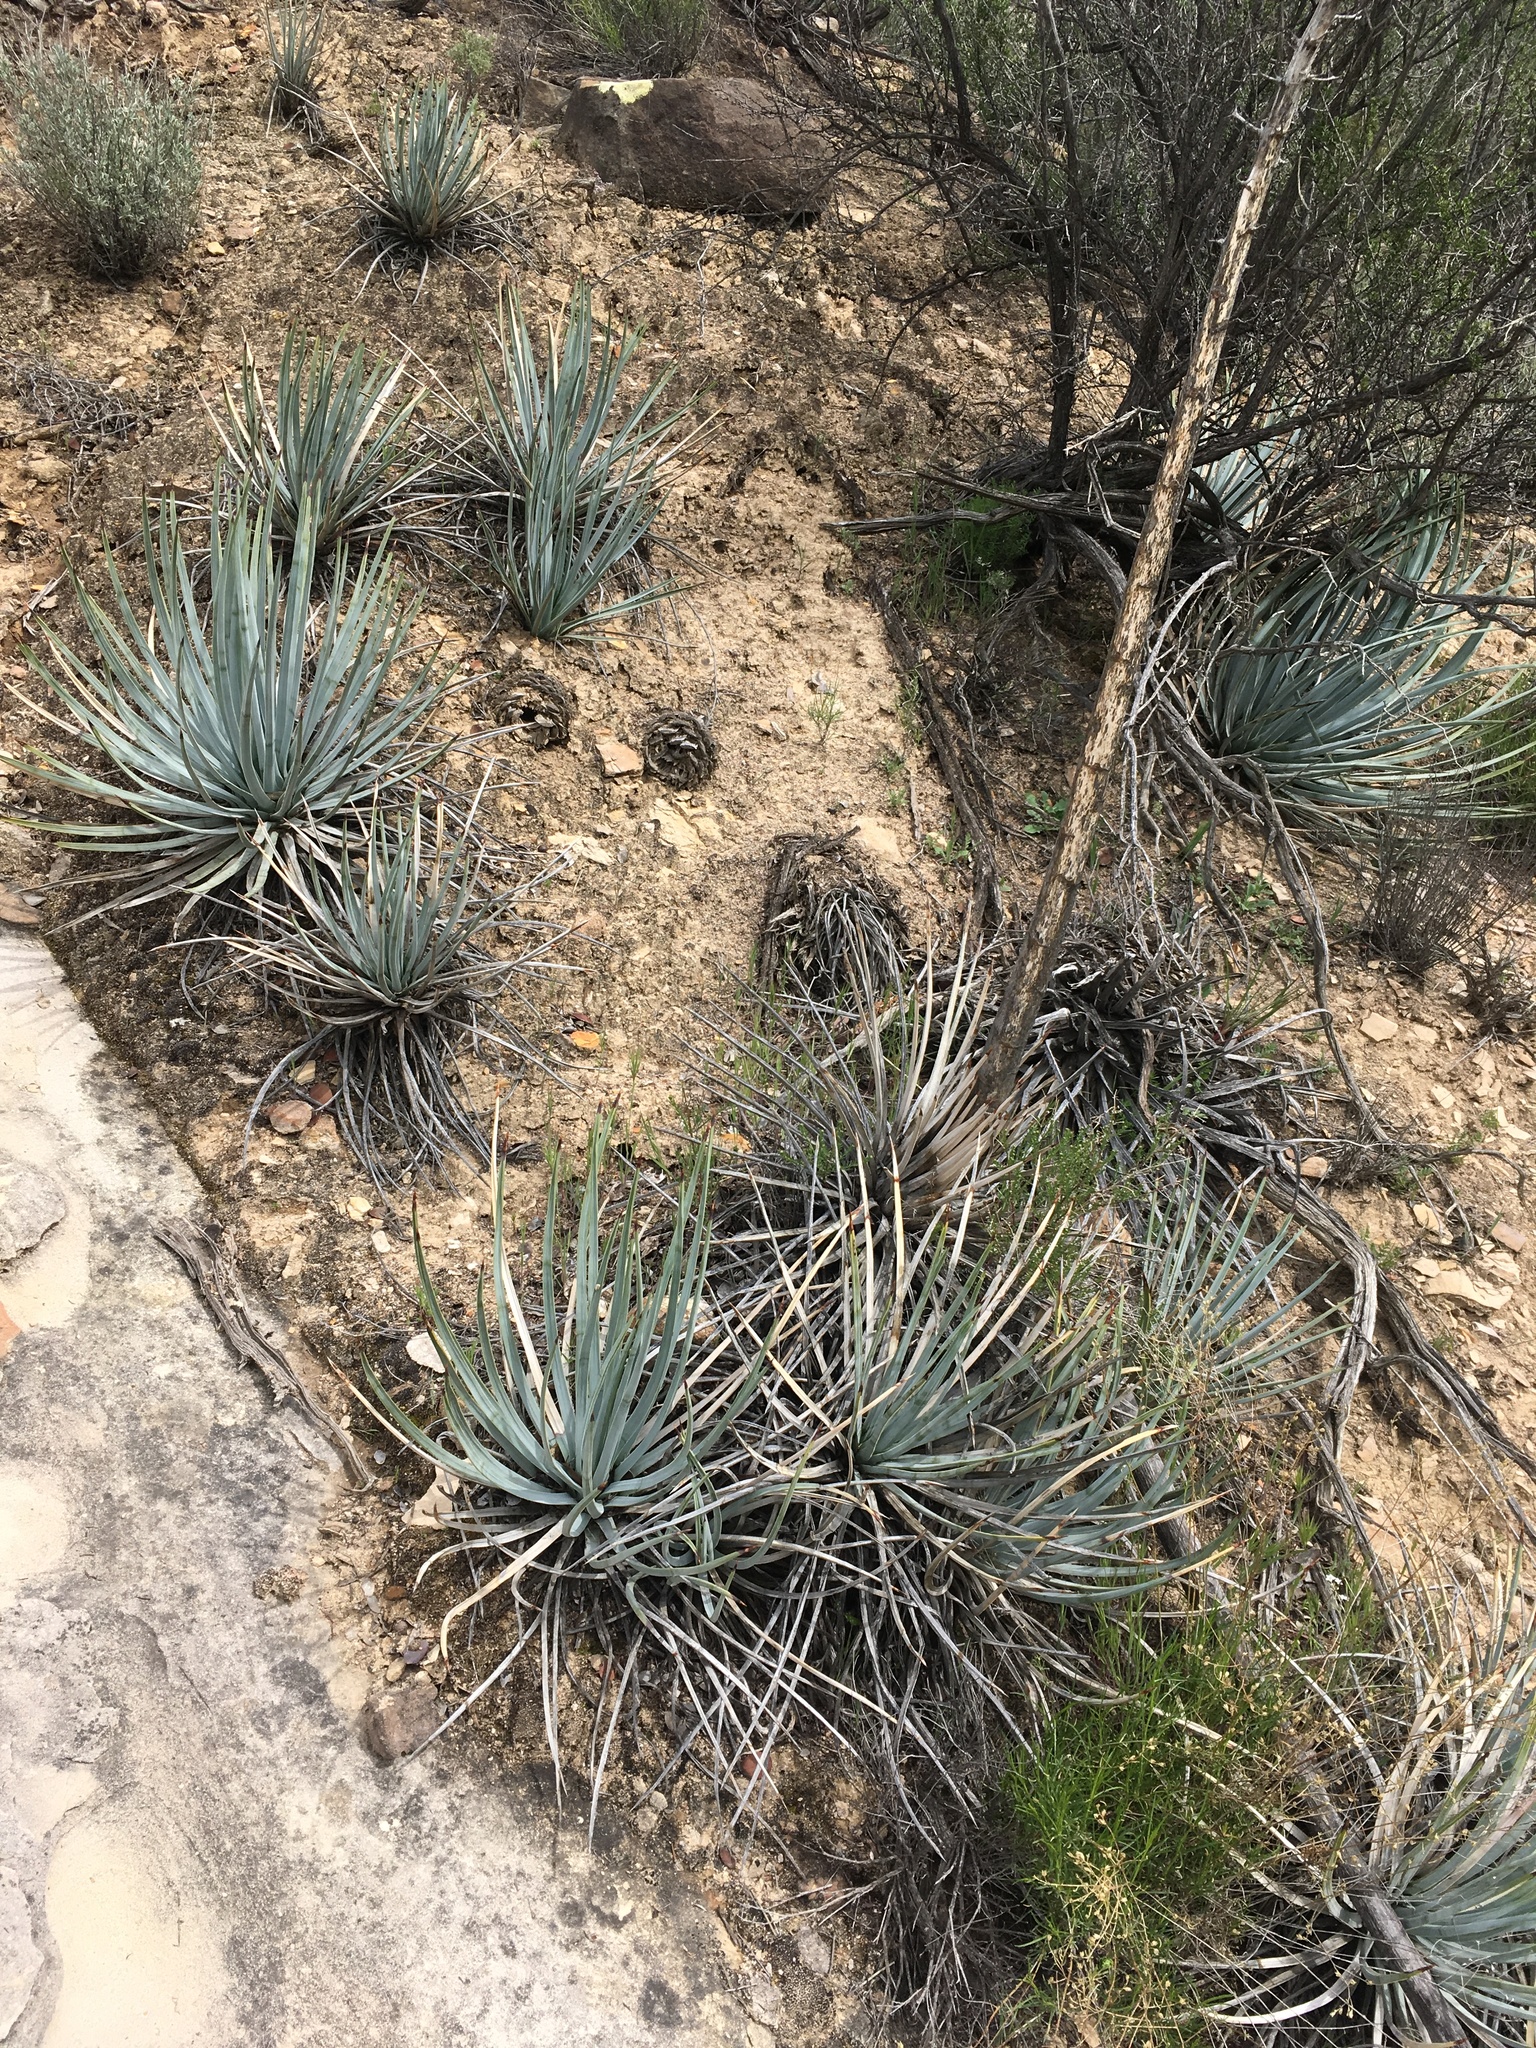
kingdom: Plantae
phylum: Tracheophyta
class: Liliopsida
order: Asparagales
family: Asparagaceae
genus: Hesperoyucca
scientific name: Hesperoyucca whipplei
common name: Our lord's-candle
